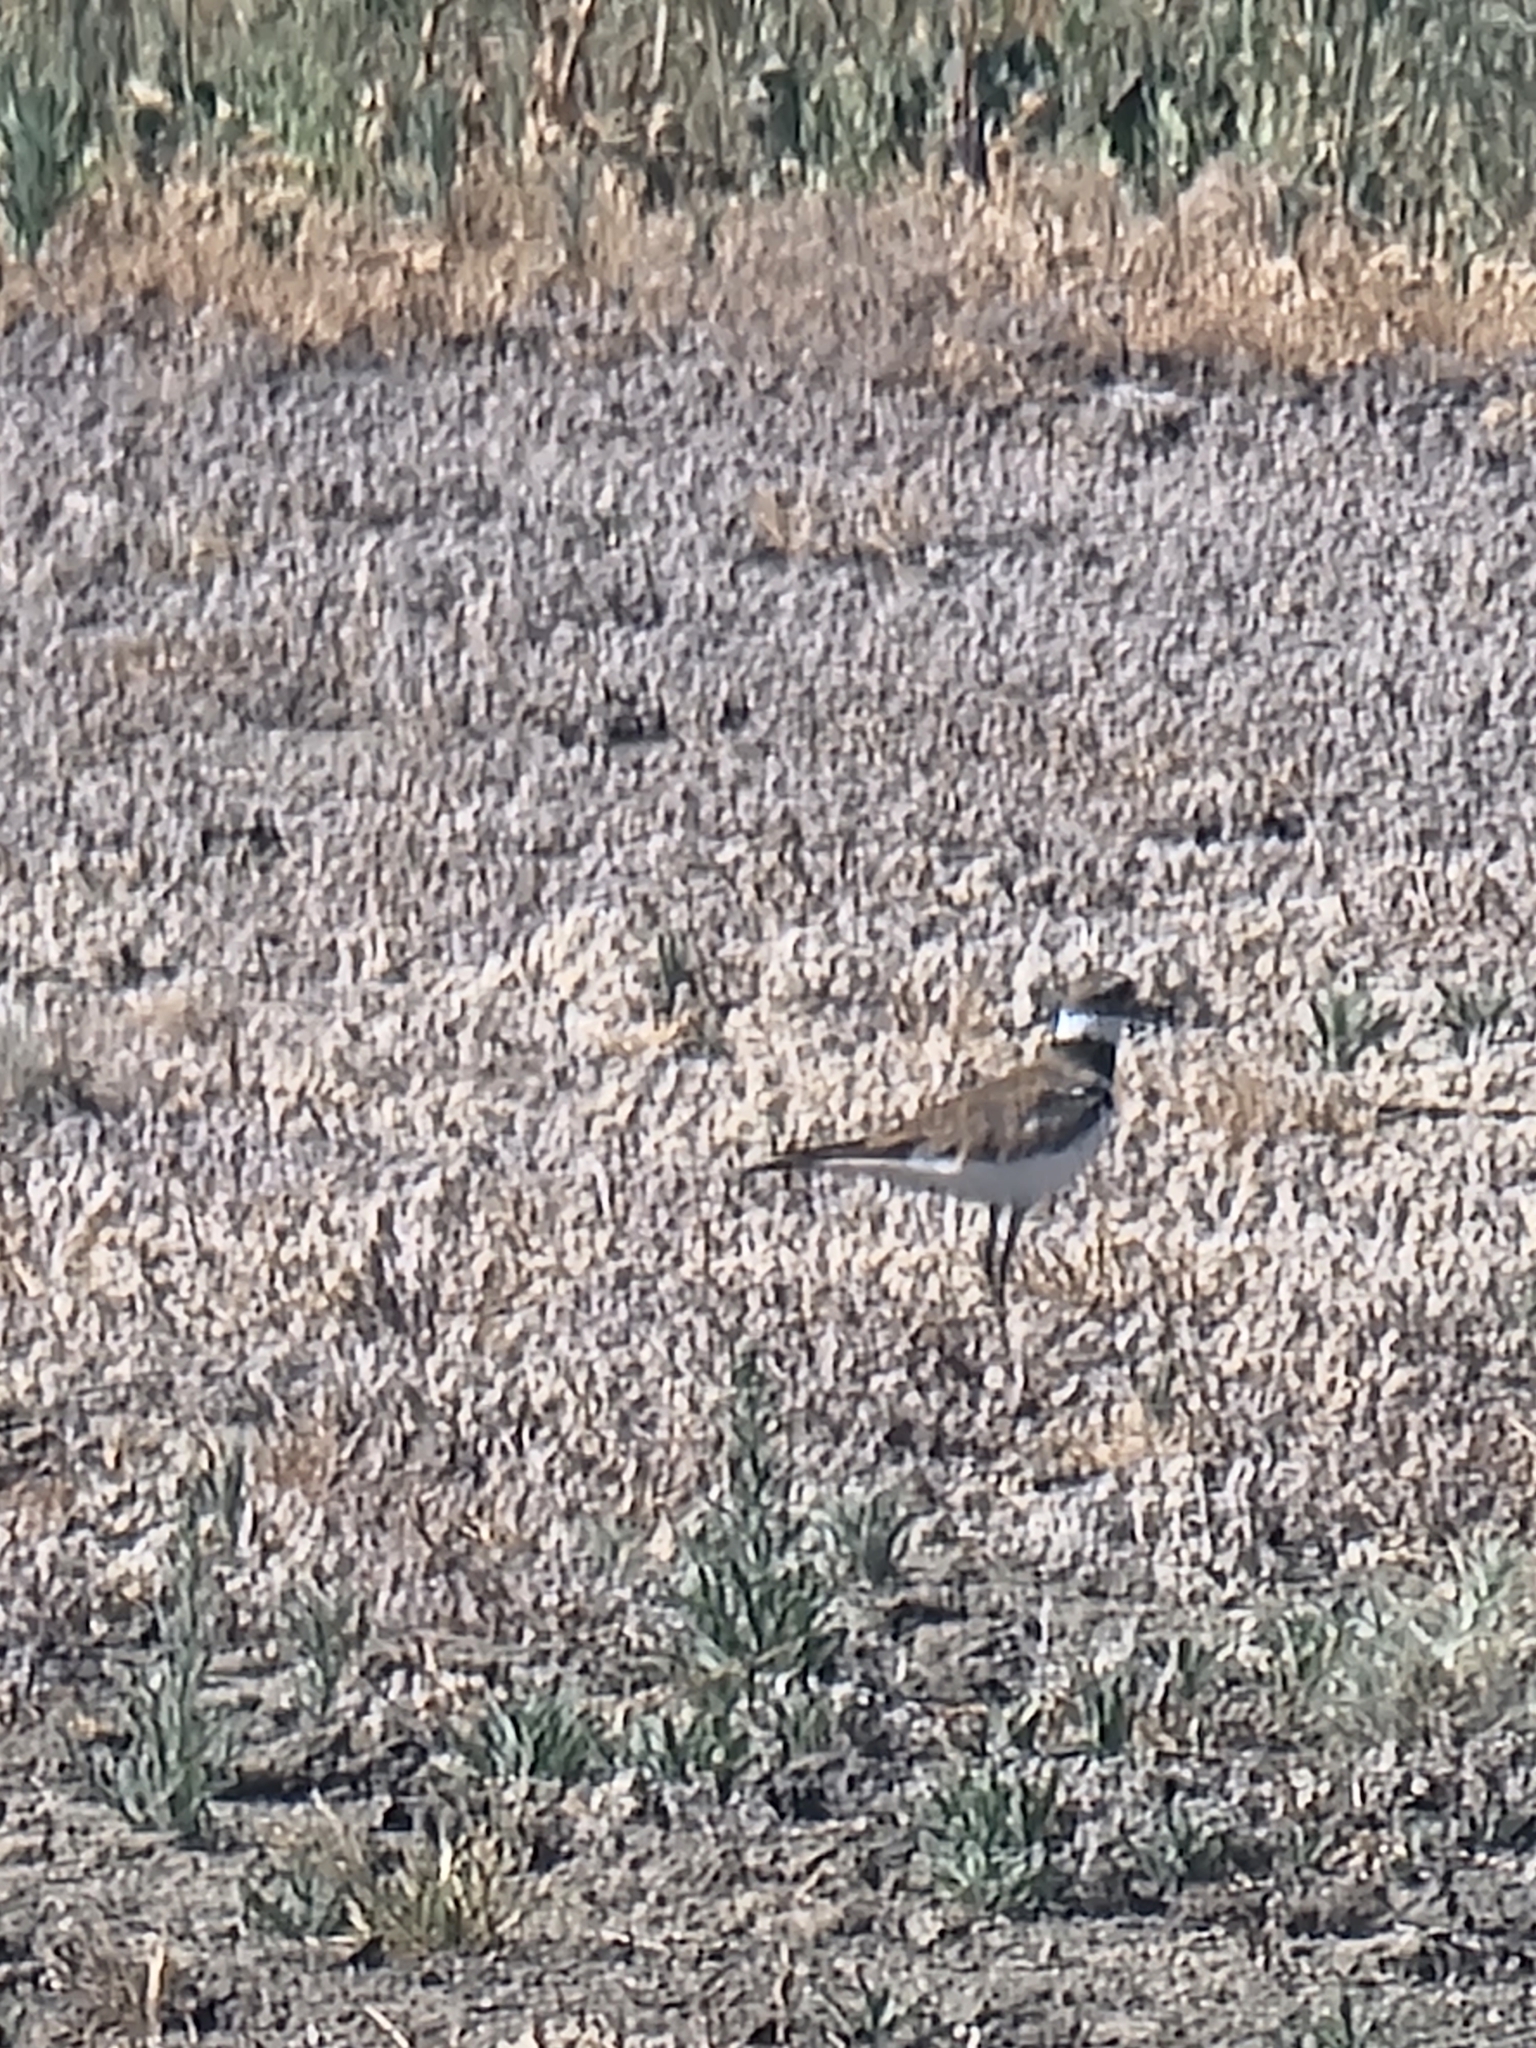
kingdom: Animalia
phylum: Chordata
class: Aves
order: Charadriiformes
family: Charadriidae
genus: Charadrius
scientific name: Charadrius vociferus
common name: Killdeer
